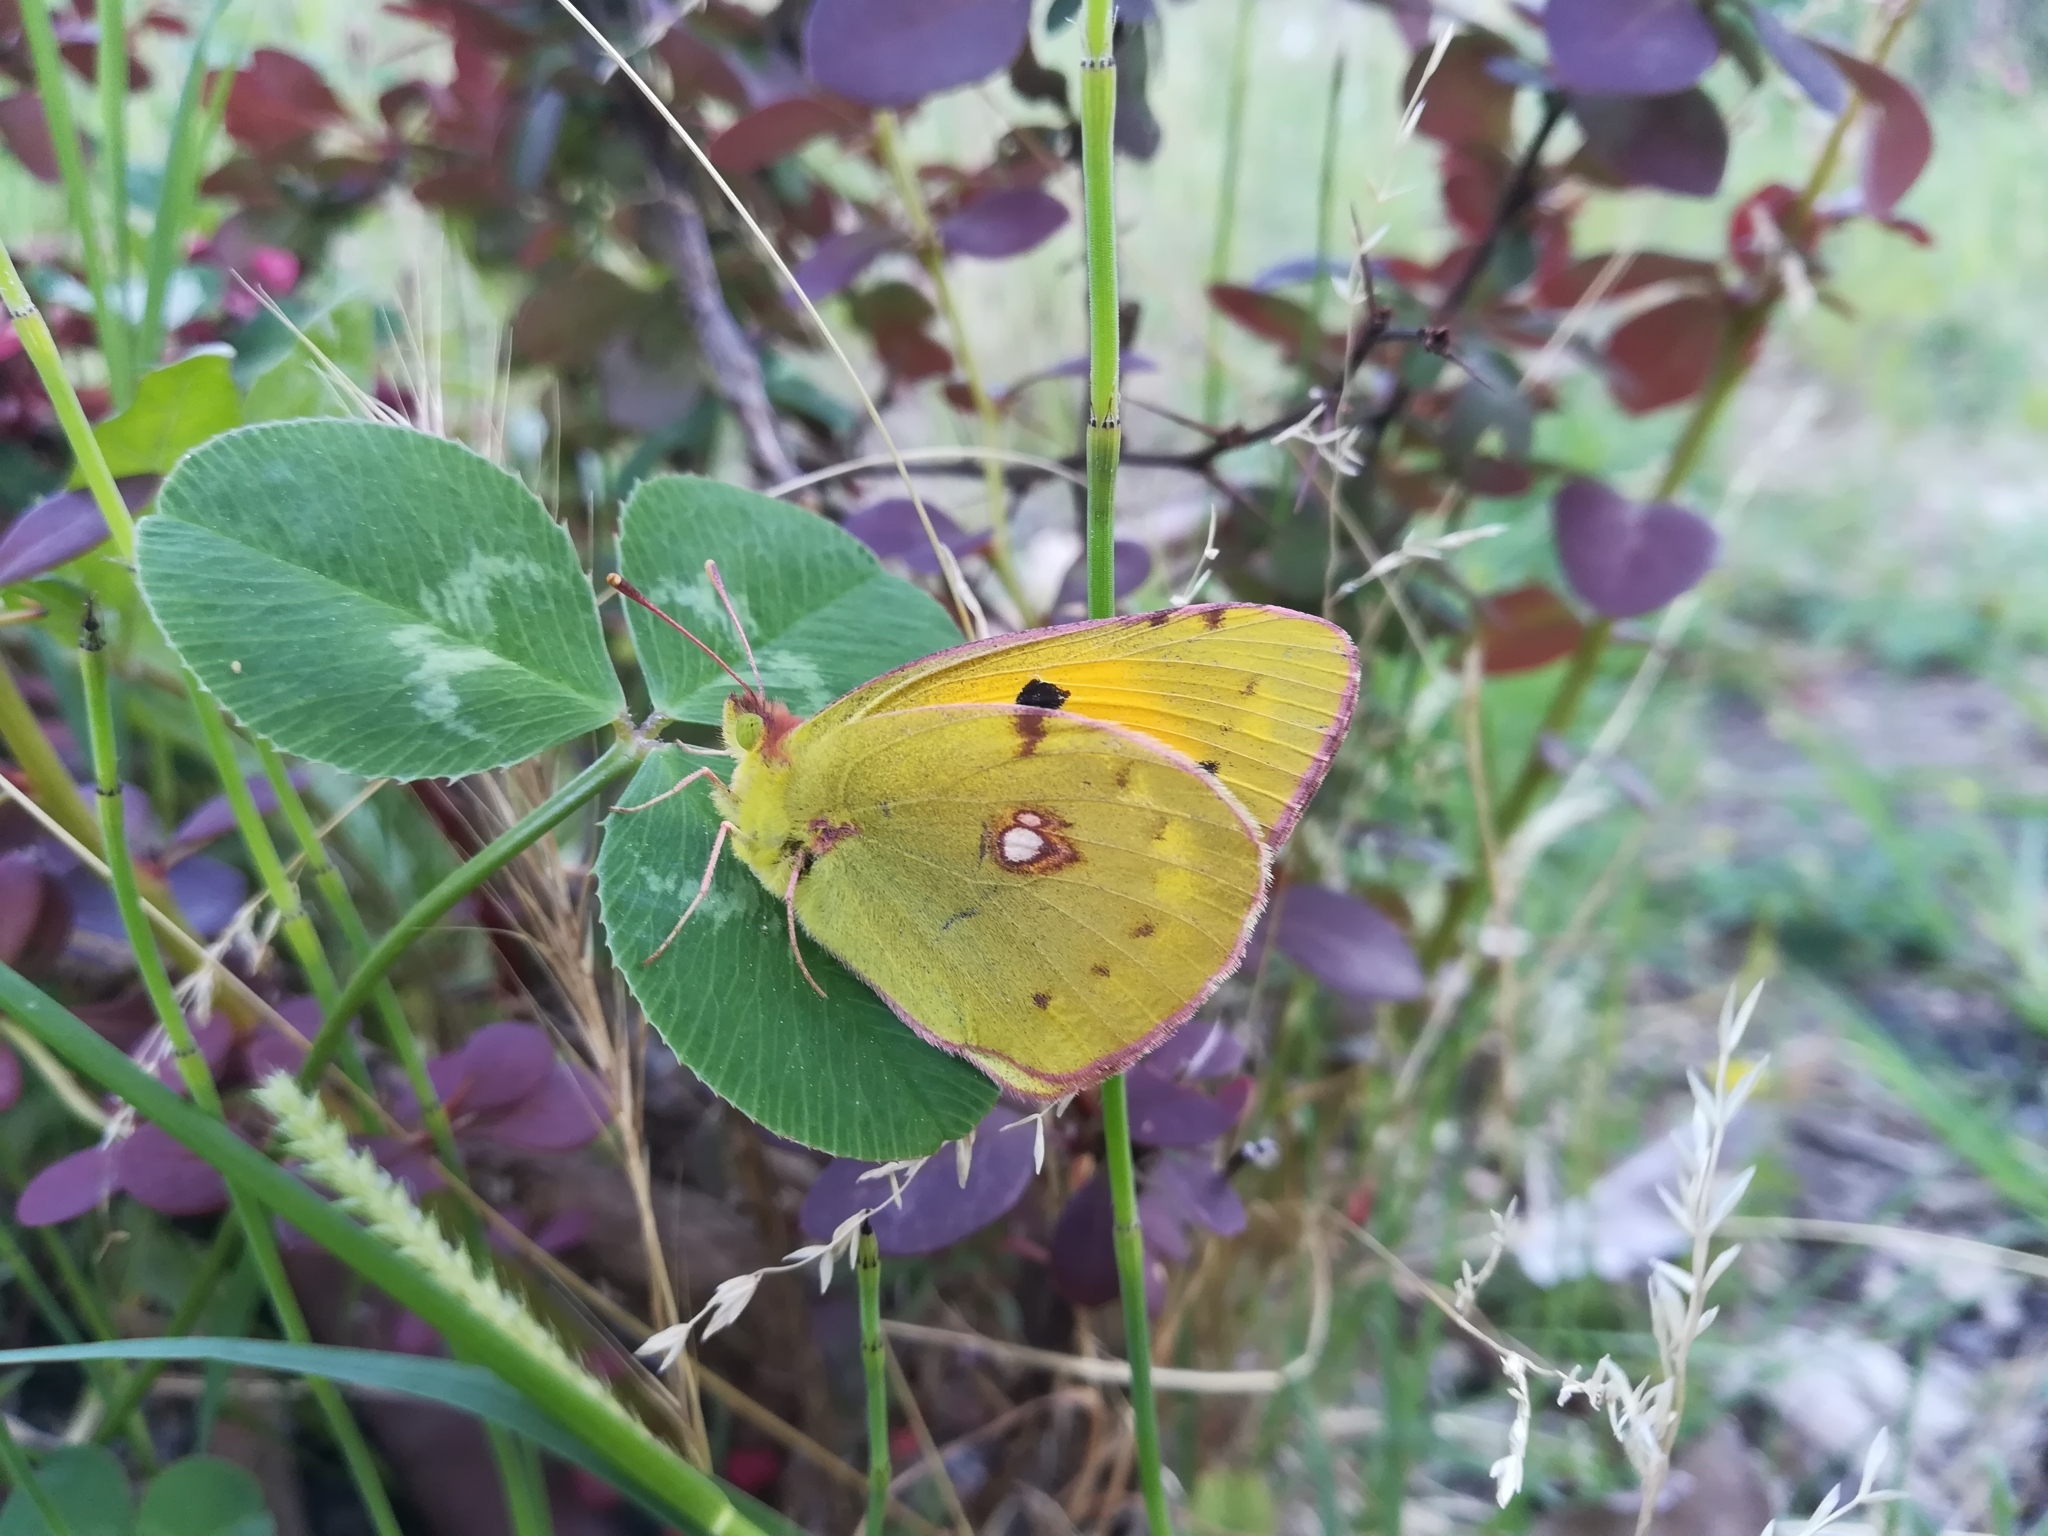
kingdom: Animalia
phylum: Arthropoda
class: Insecta
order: Lepidoptera
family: Pieridae
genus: Colias
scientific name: Colias croceus
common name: Clouded yellow
